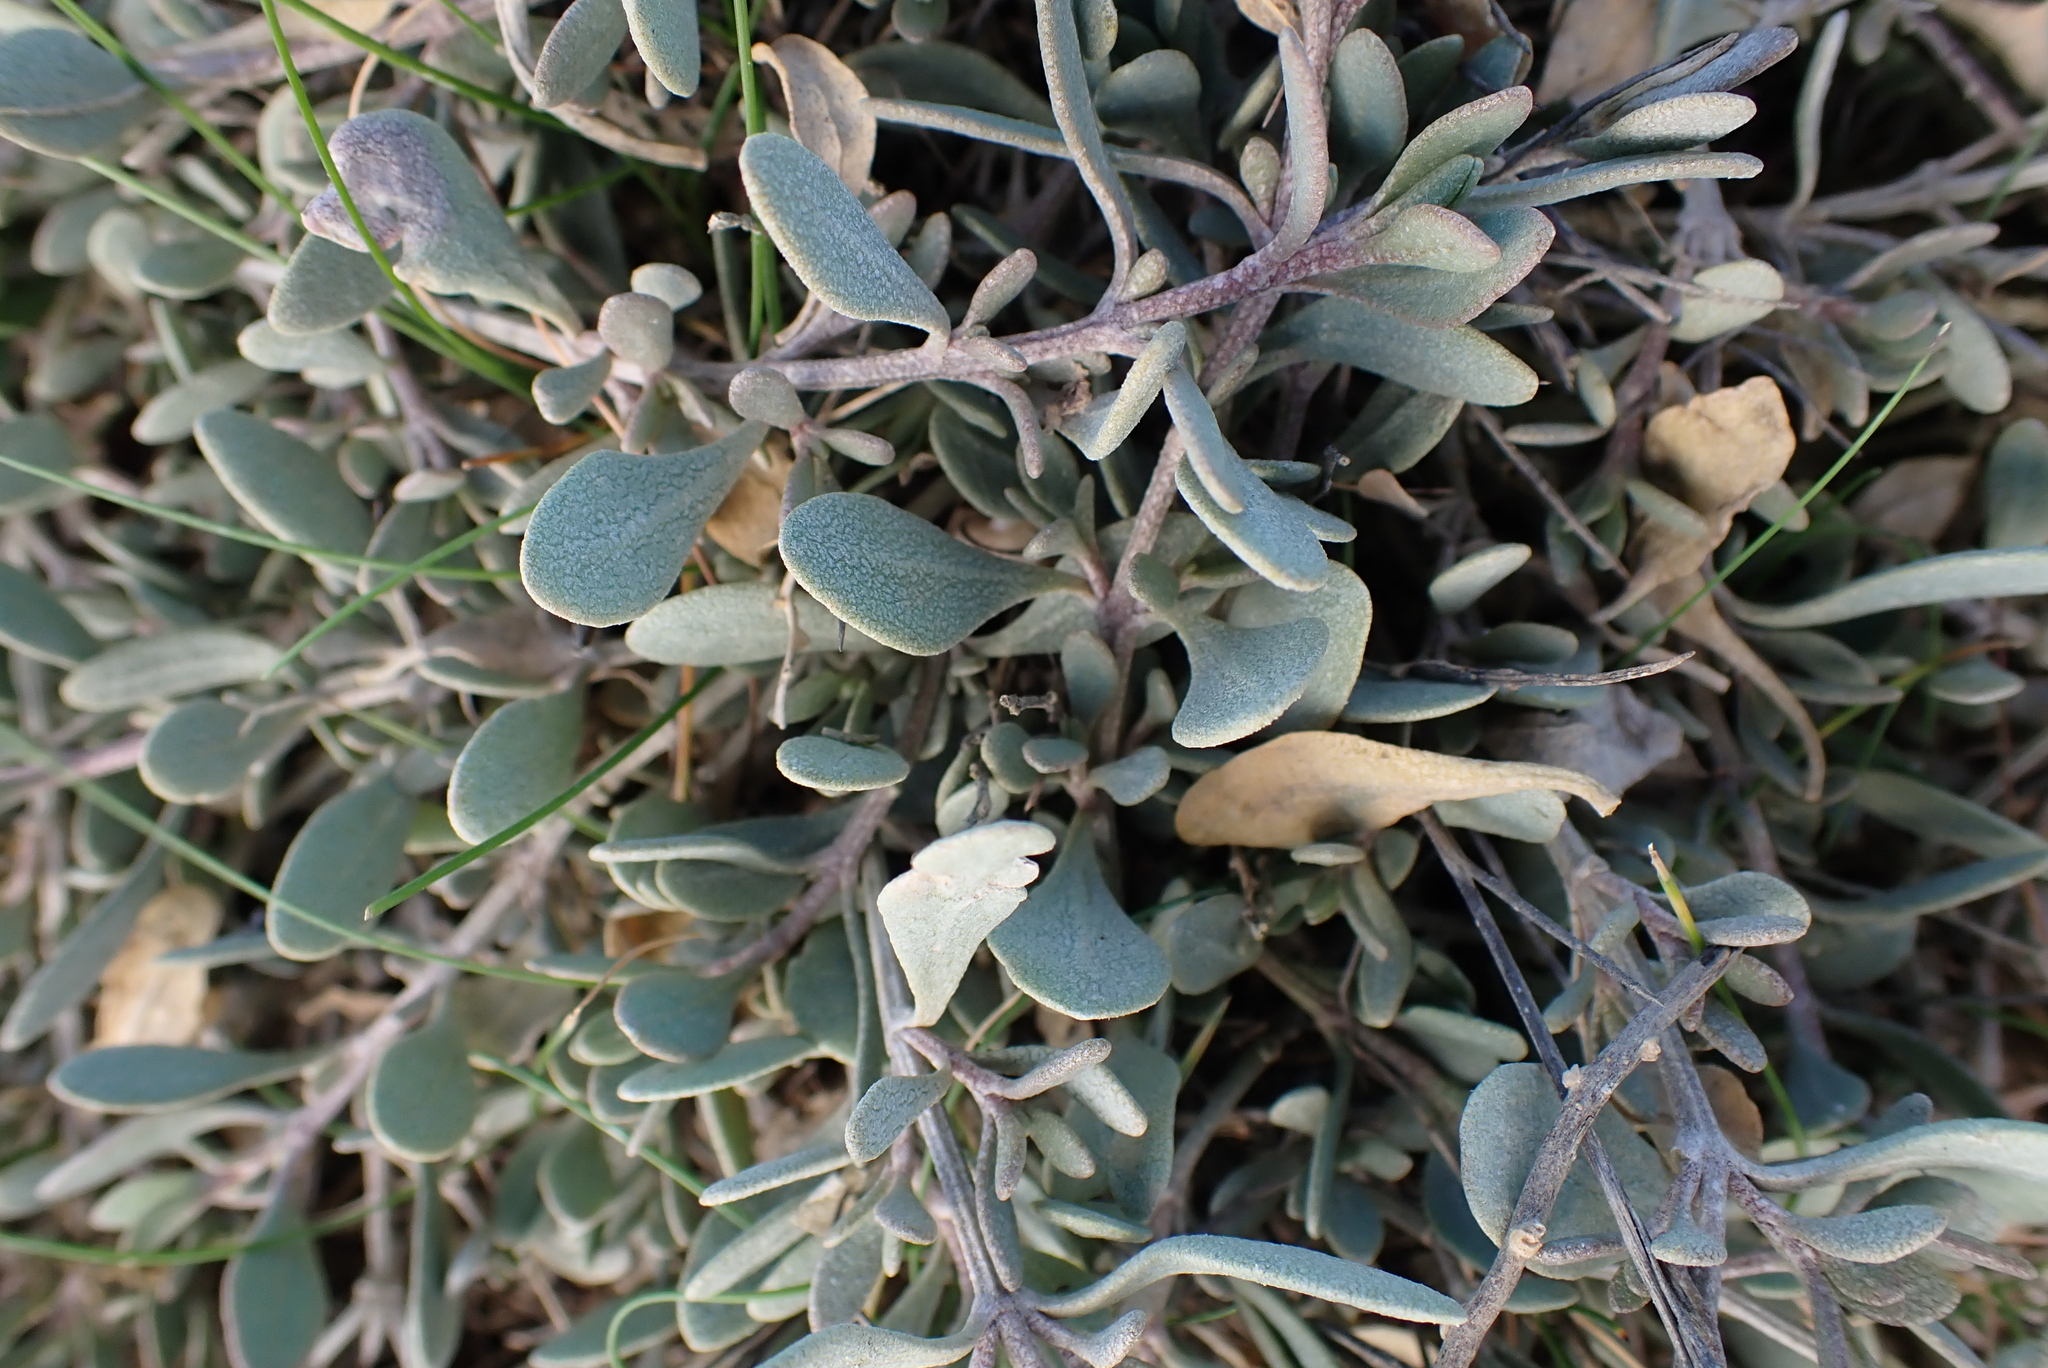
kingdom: Plantae
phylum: Tracheophyta
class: Magnoliopsida
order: Caryophyllales
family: Amaranthaceae
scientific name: Amaranthaceae
